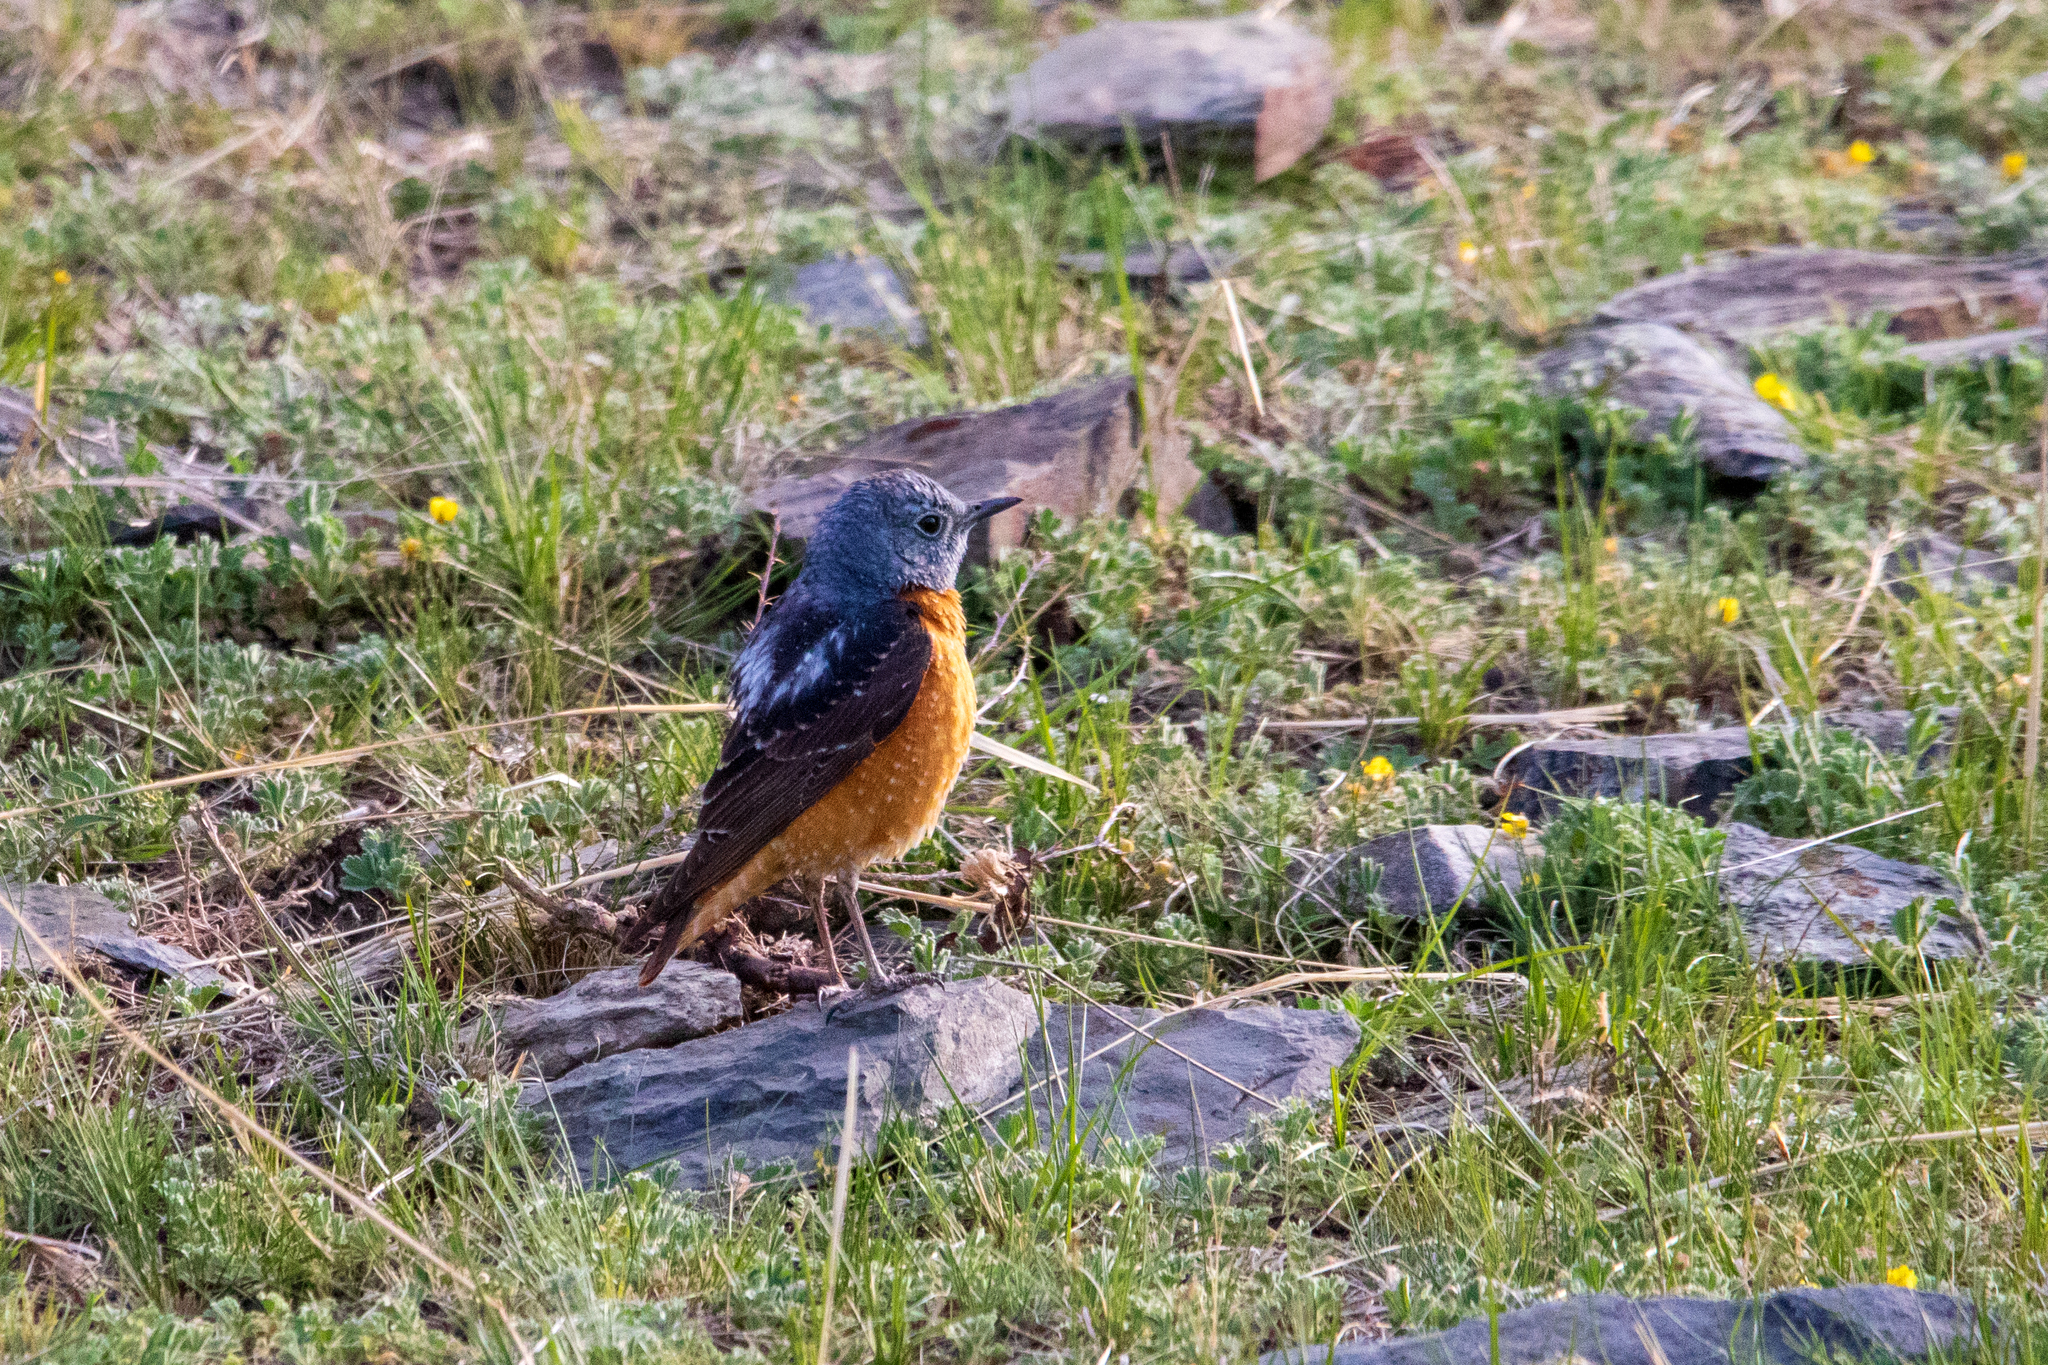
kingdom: Animalia
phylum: Chordata
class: Aves
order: Passeriformes
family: Muscicapidae
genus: Monticola
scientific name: Monticola saxatilis
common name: Rufous-tailed rock thrush
